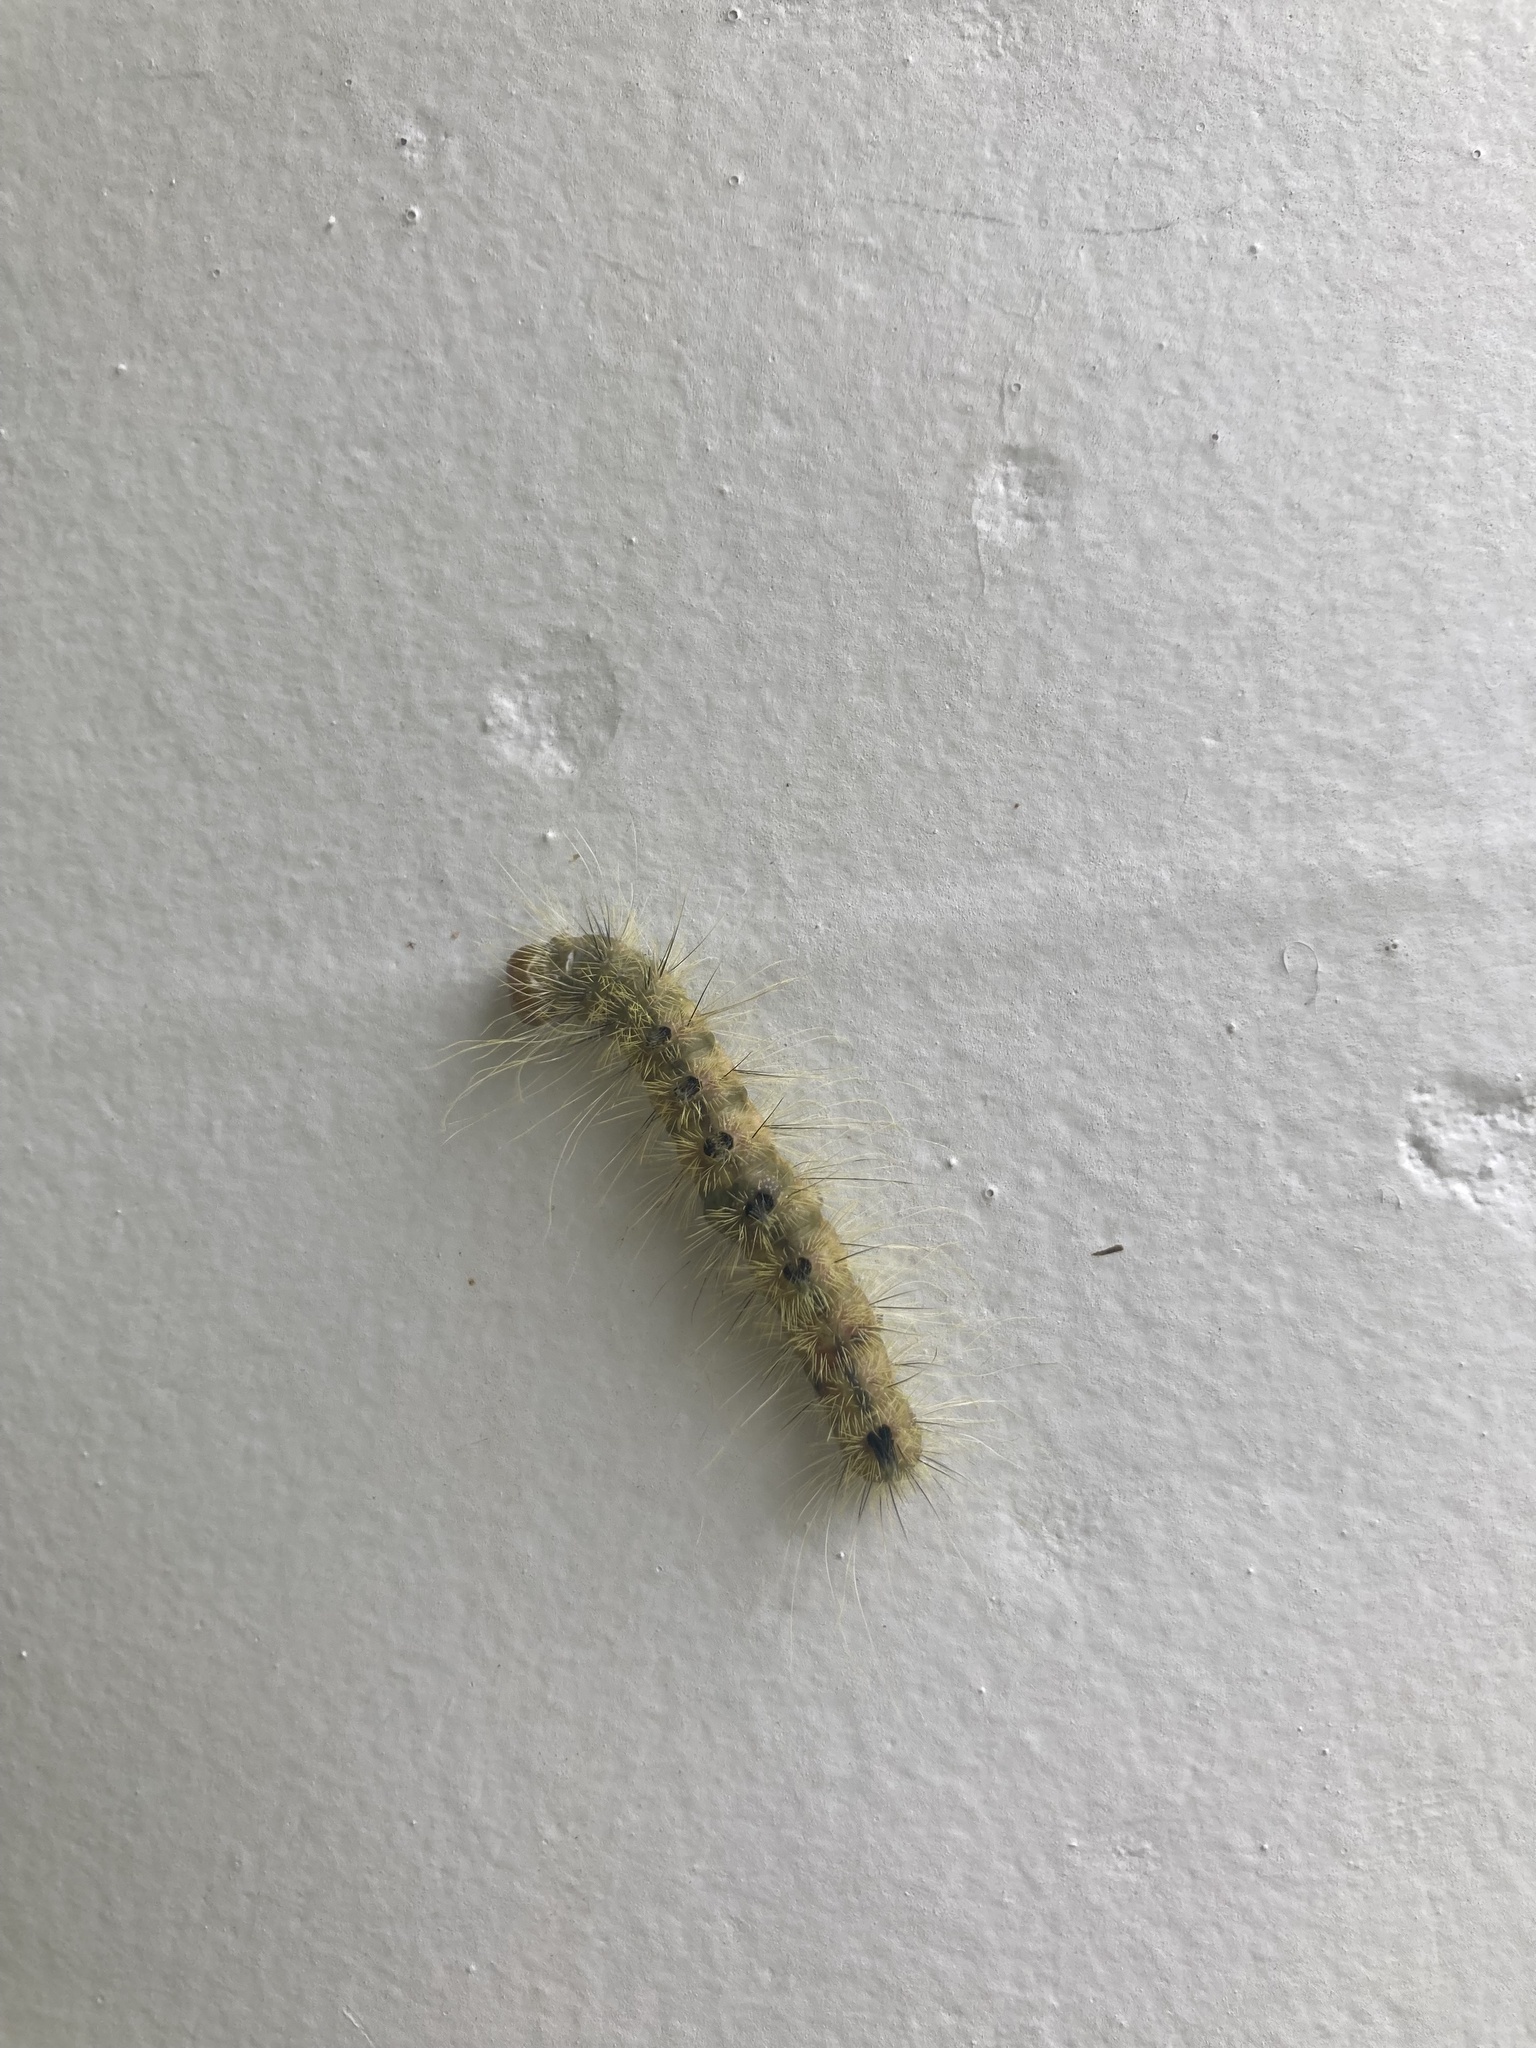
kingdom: Animalia
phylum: Arthropoda
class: Insecta
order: Lepidoptera
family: Noctuidae
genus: Acronicta
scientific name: Acronicta rubricoma
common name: Hackberry dagger
